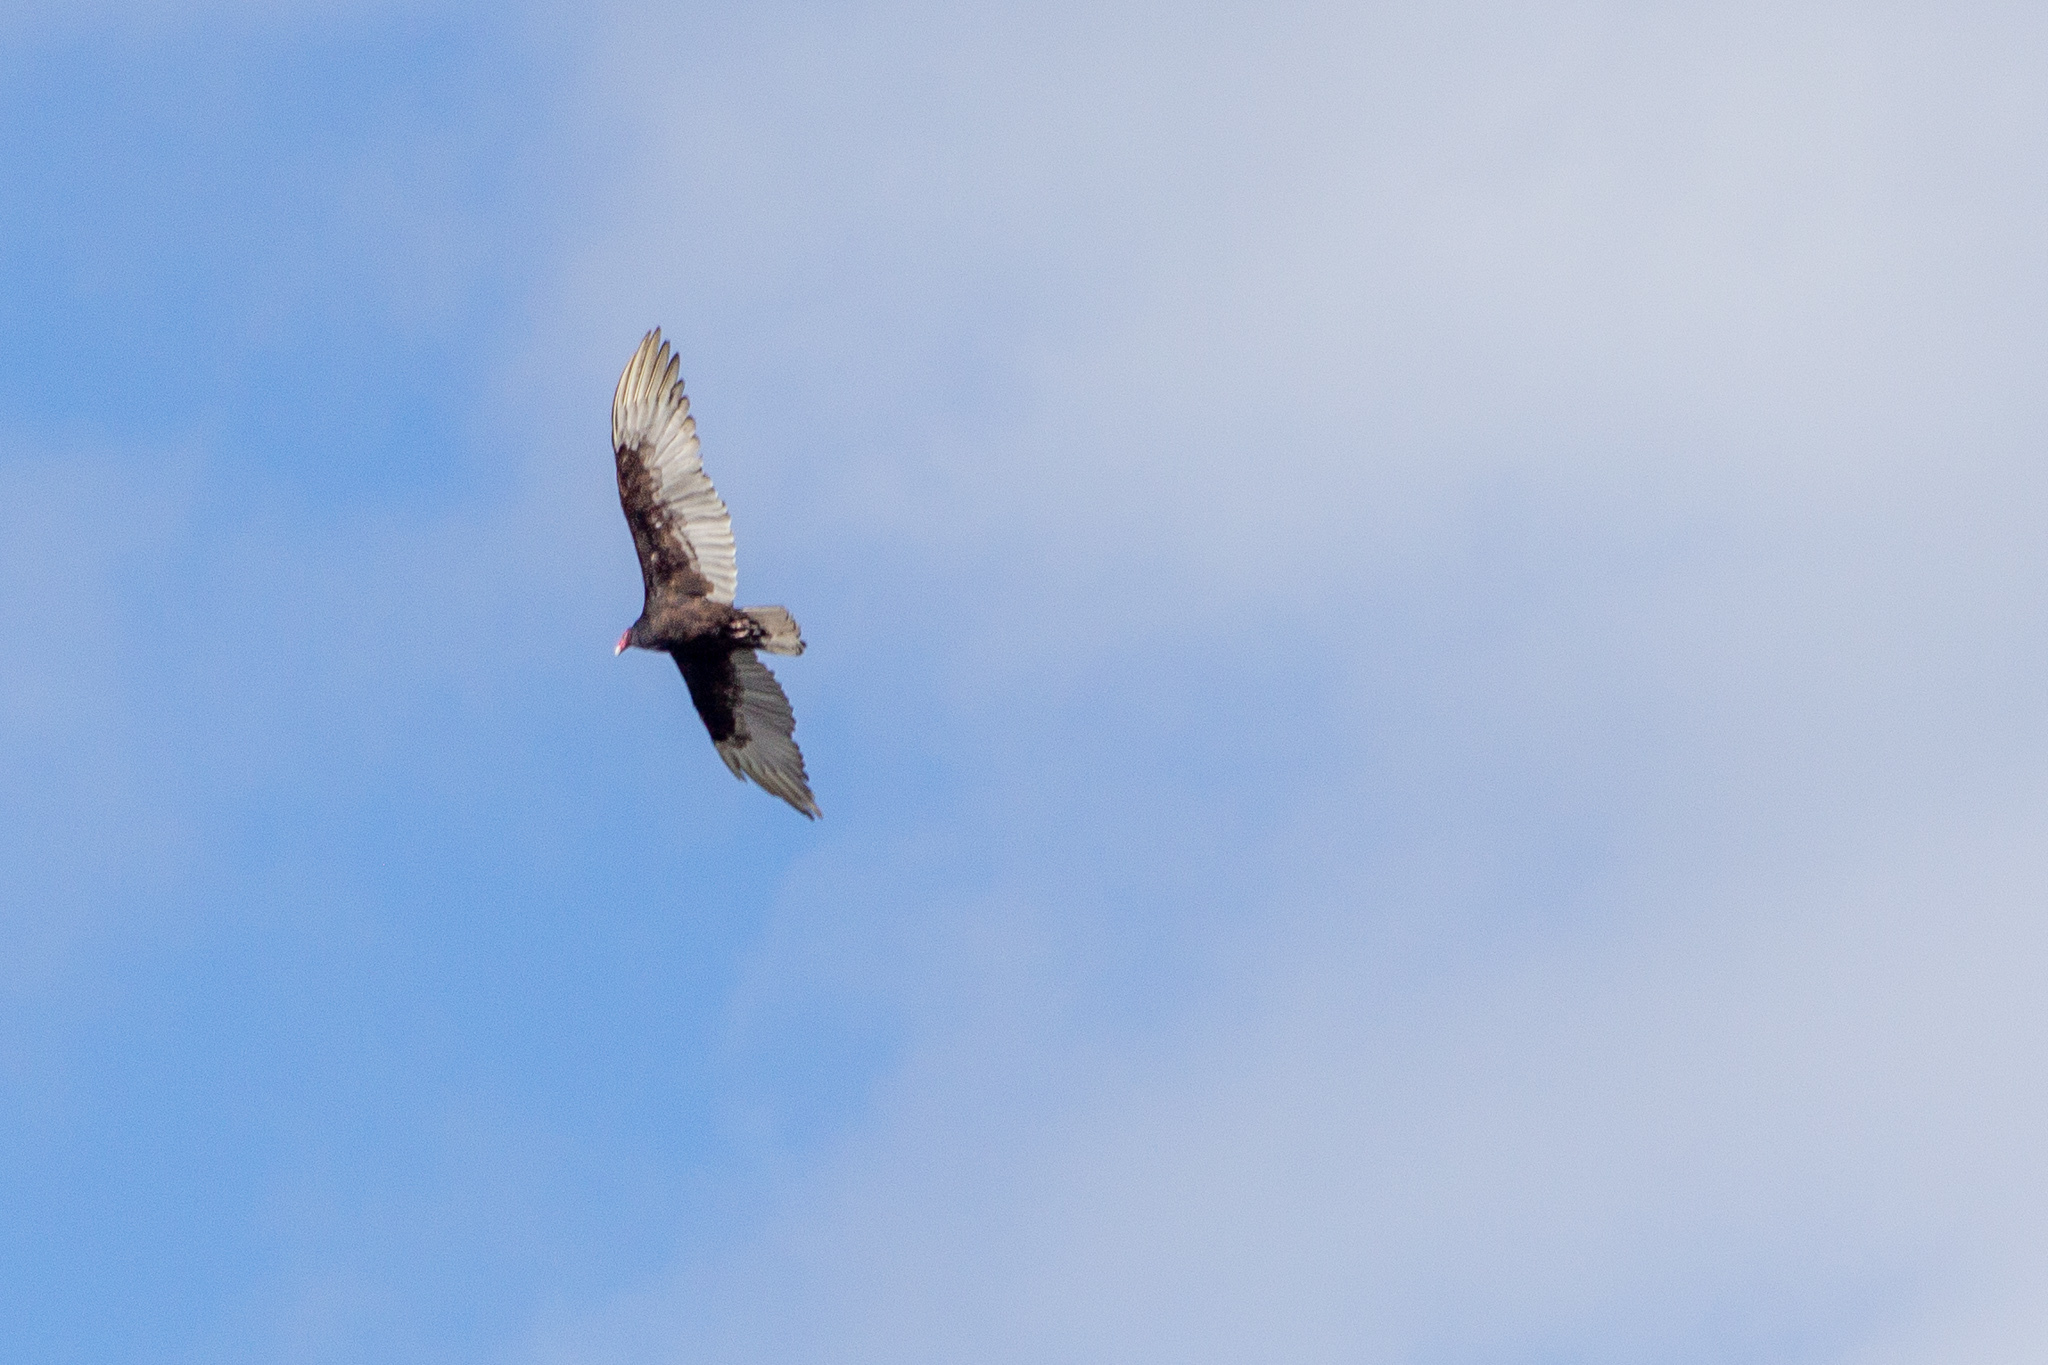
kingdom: Animalia
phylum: Chordata
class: Aves
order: Accipitriformes
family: Cathartidae
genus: Cathartes
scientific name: Cathartes aura
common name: Turkey vulture
